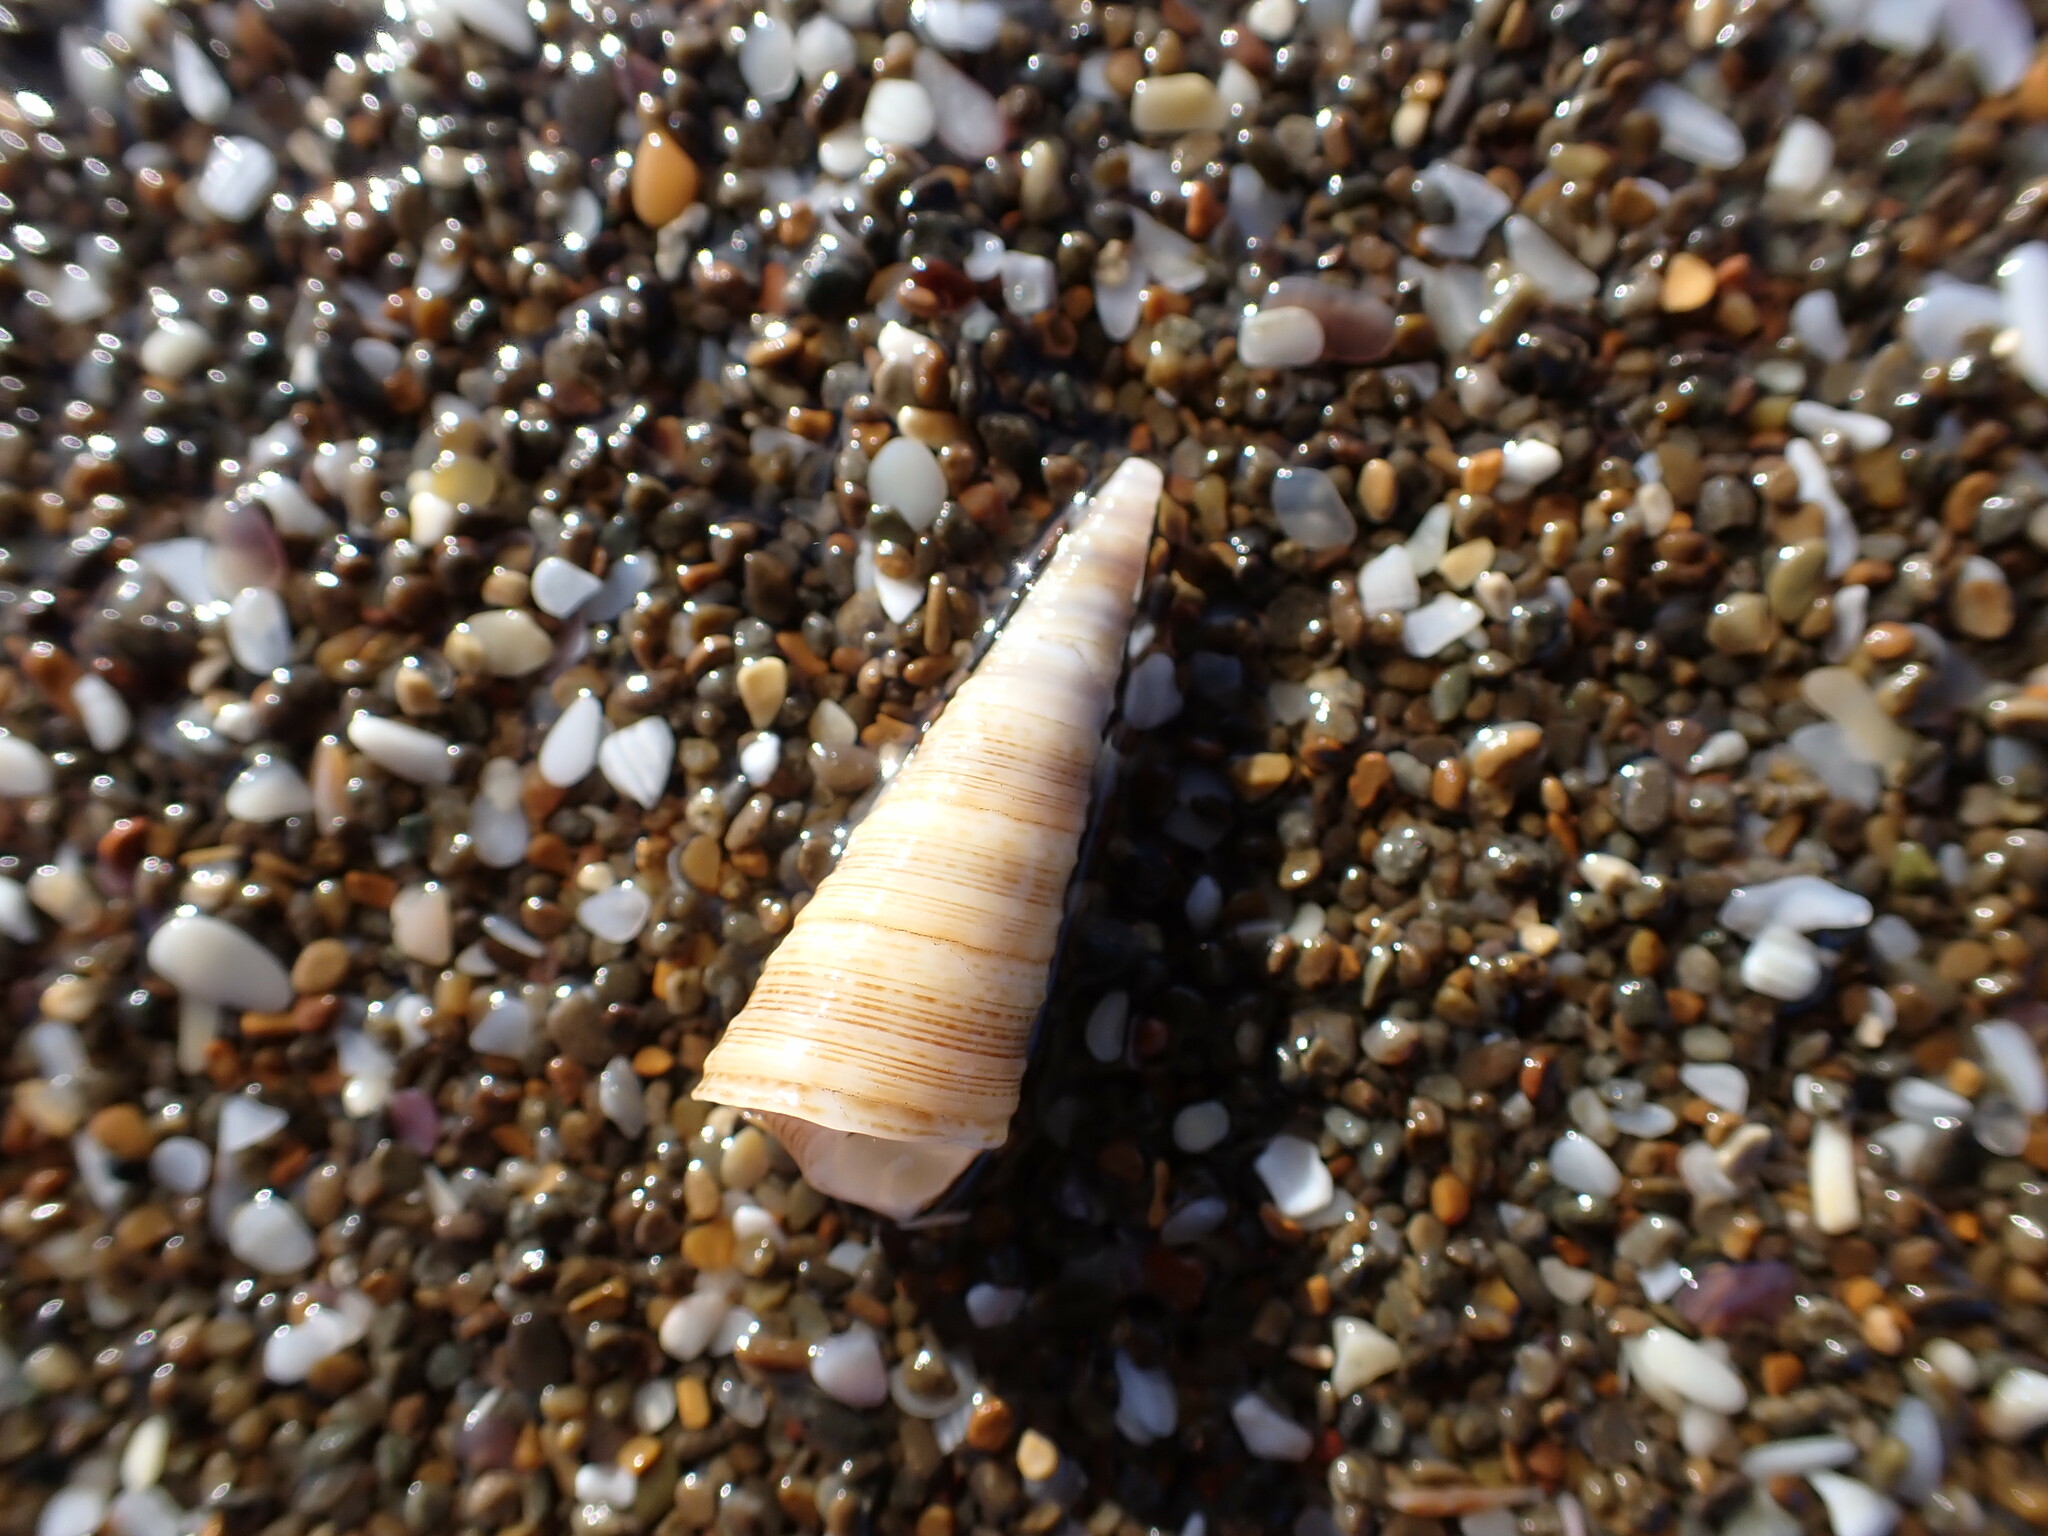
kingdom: Animalia
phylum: Mollusca
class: Gastropoda
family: Turritellidae
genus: Maoricolpus
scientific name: Maoricolpus roseus
